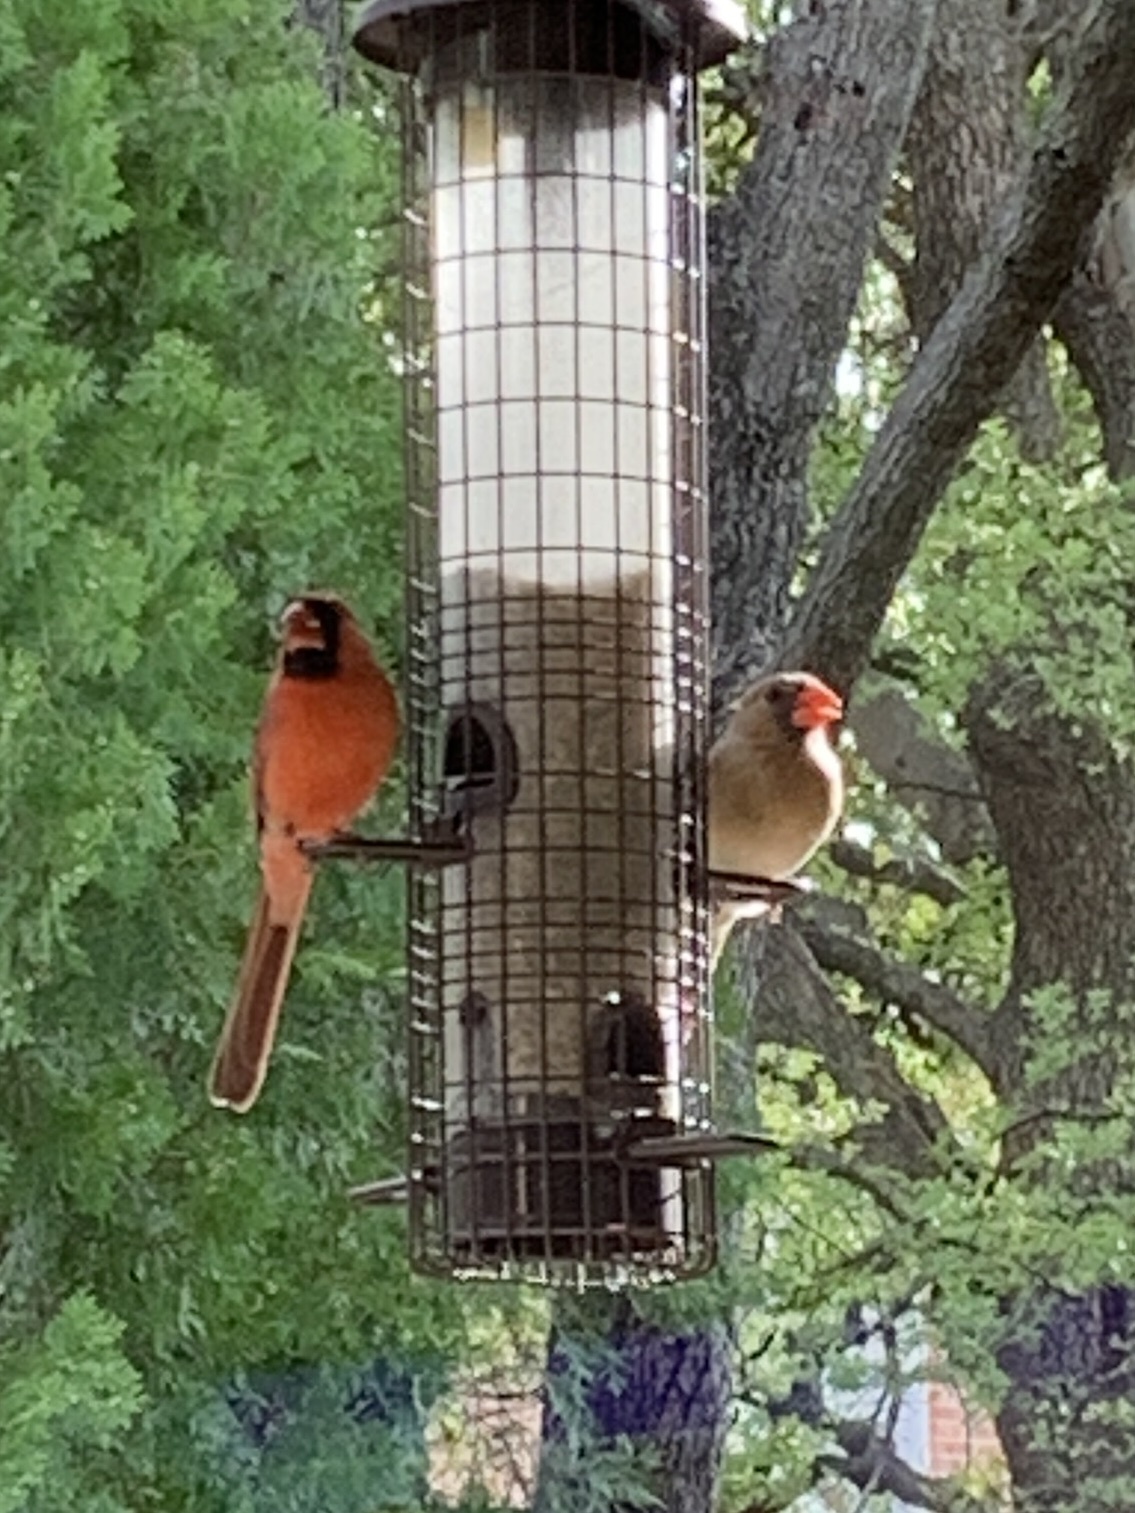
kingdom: Animalia
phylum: Chordata
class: Aves
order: Passeriformes
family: Cardinalidae
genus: Cardinalis
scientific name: Cardinalis cardinalis
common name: Northern cardinal
